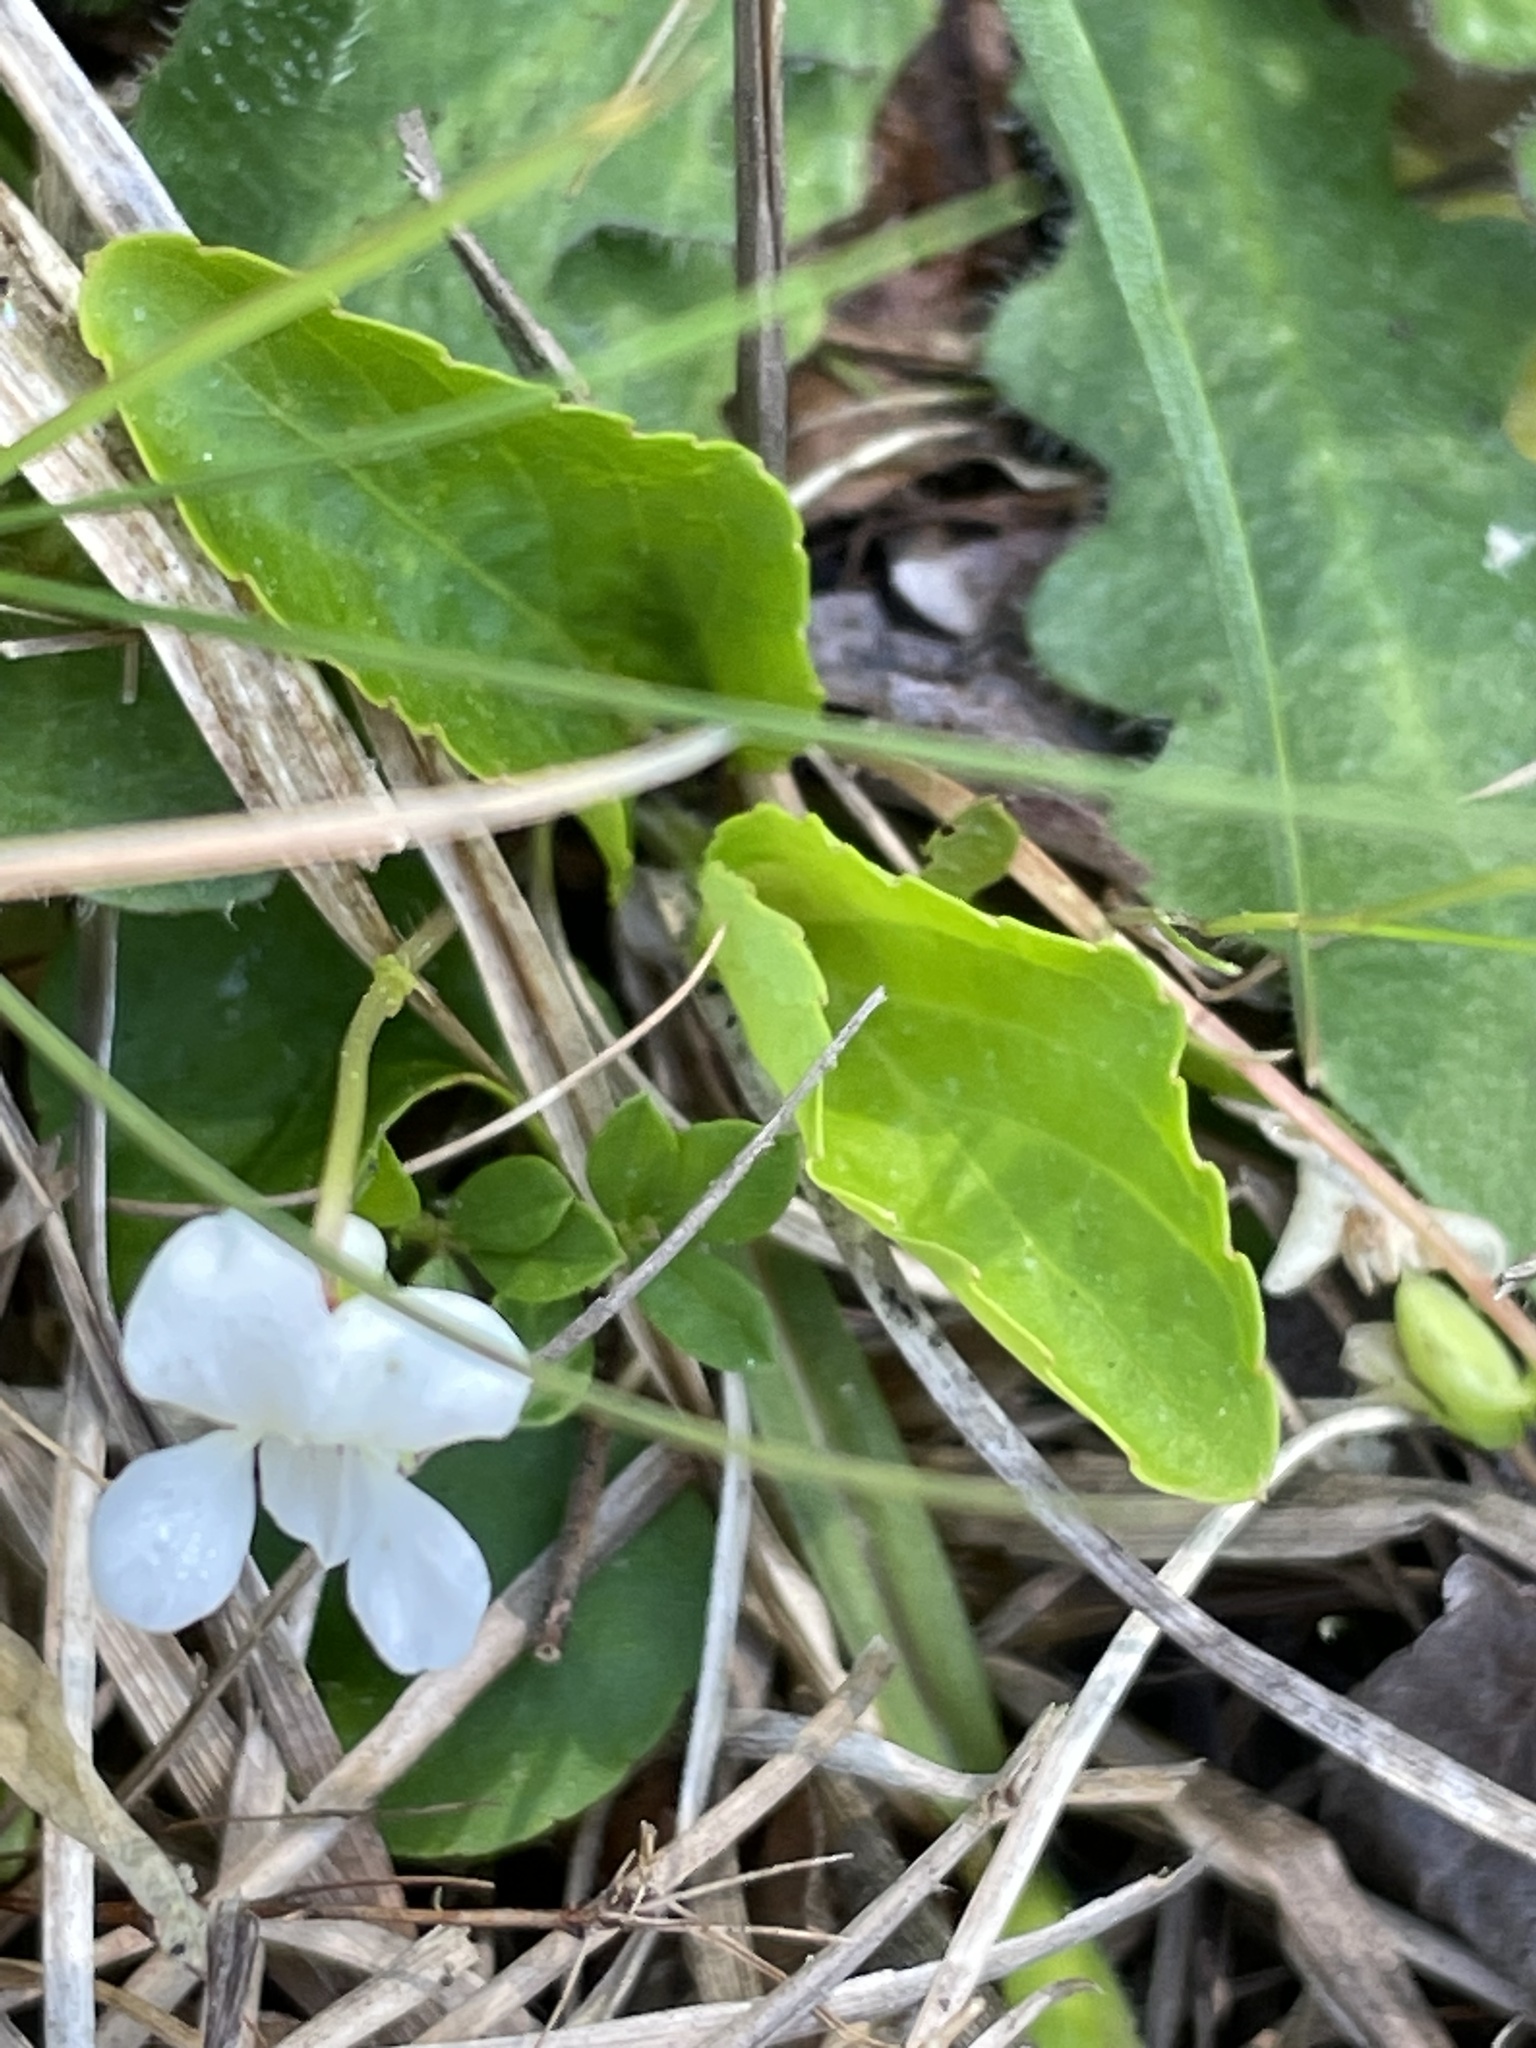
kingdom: Plantae
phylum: Tracheophyta
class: Magnoliopsida
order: Malpighiales
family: Violaceae
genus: Viola
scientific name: Viola primulifolia
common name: Primrose-leaf violet
